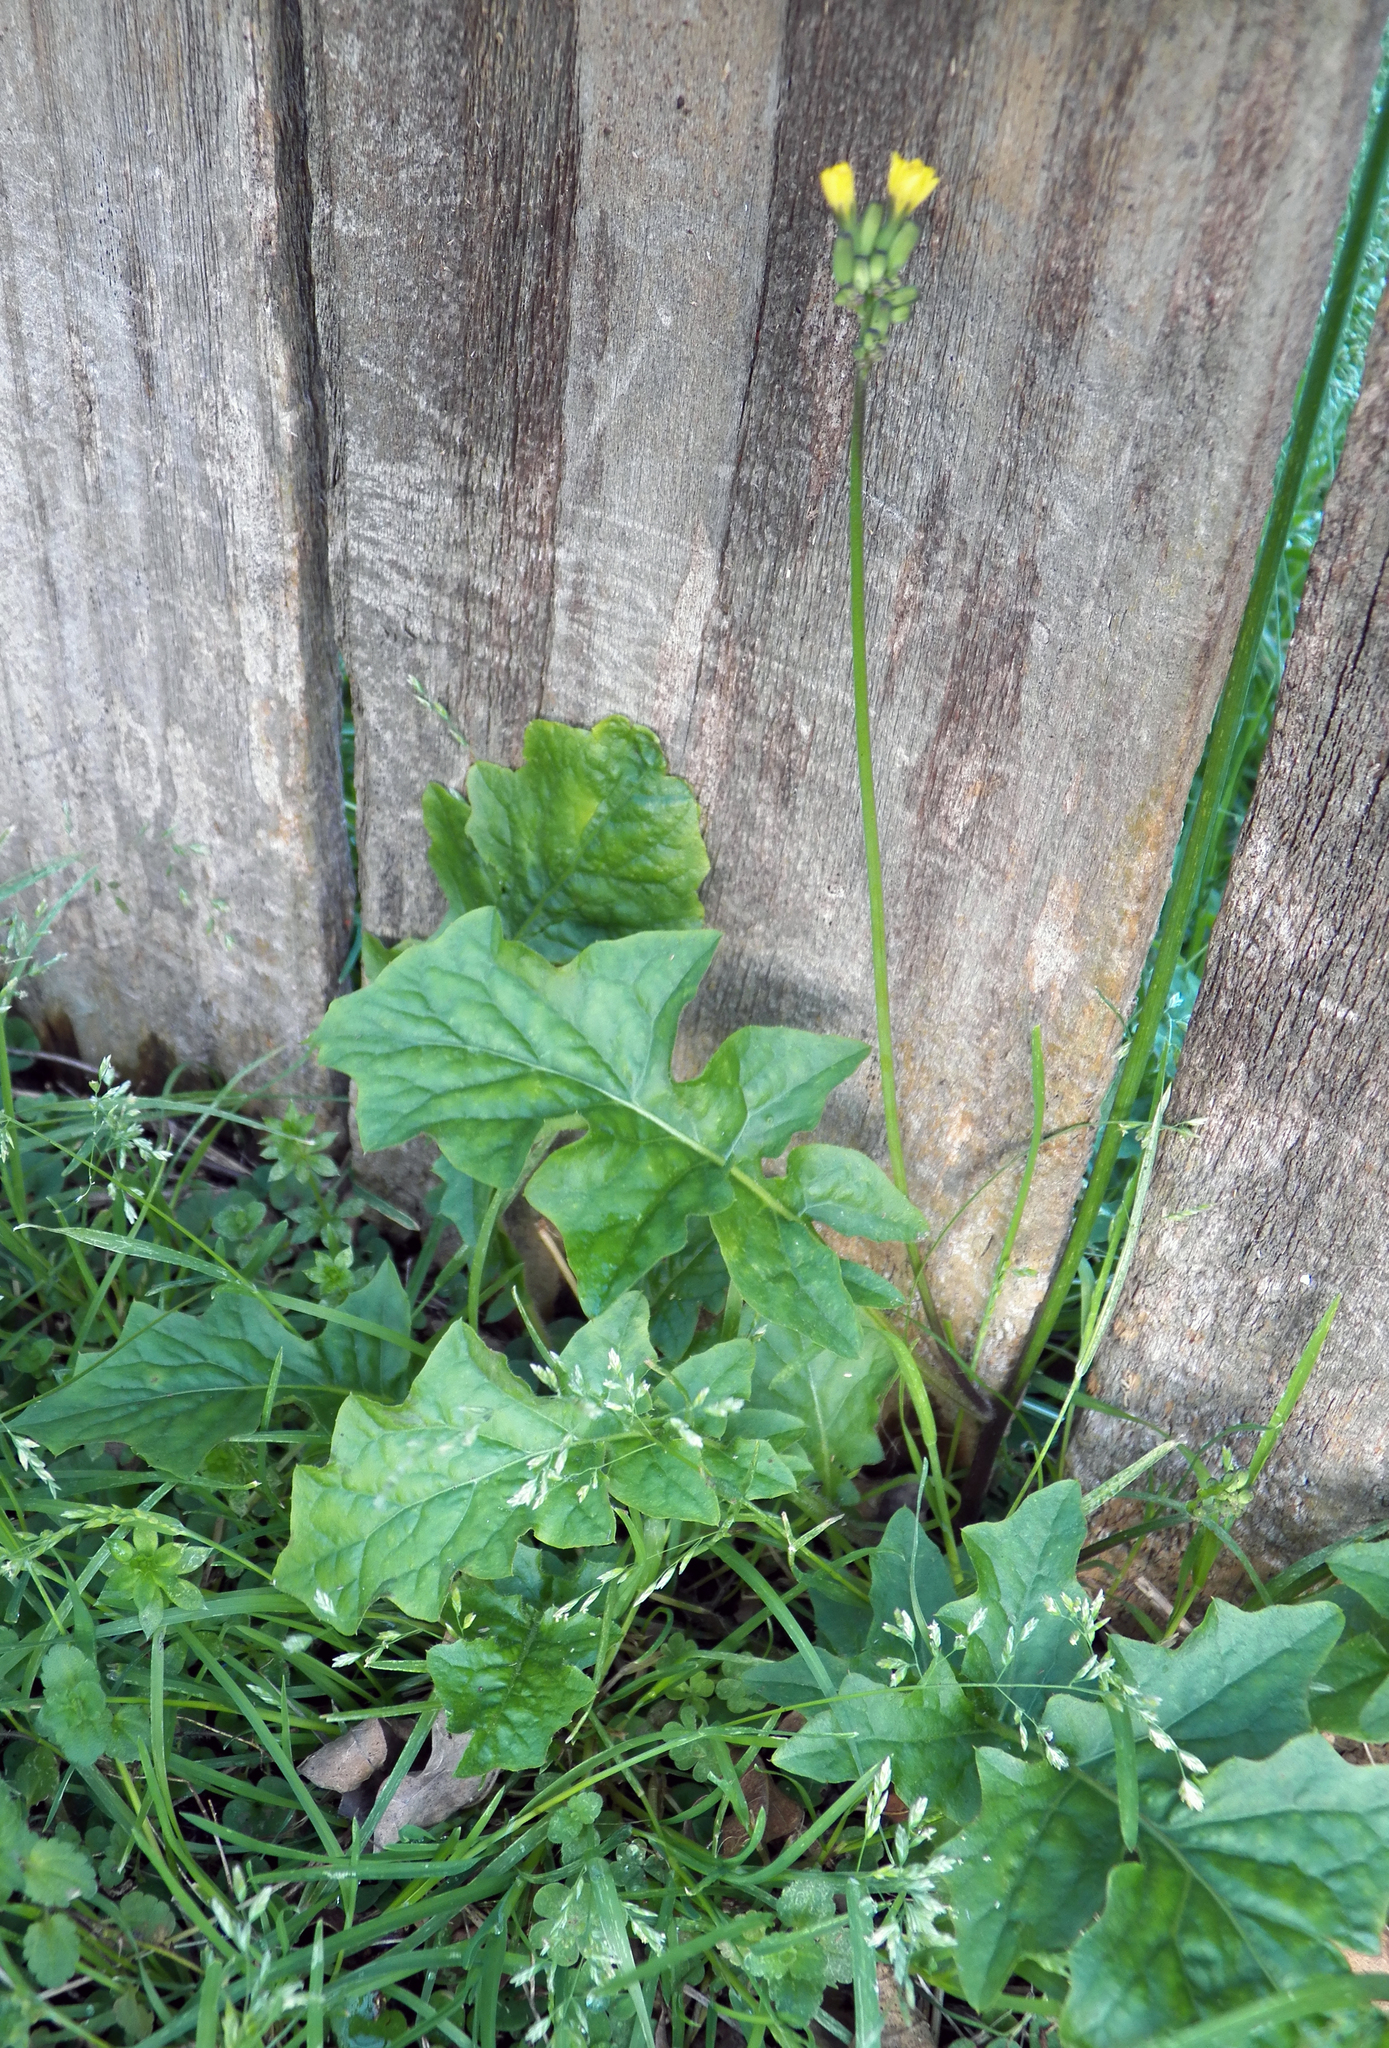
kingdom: Plantae
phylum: Tracheophyta
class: Magnoliopsida
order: Asterales
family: Asteraceae
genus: Youngia
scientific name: Youngia japonica
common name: Oriental false hawksbeard
